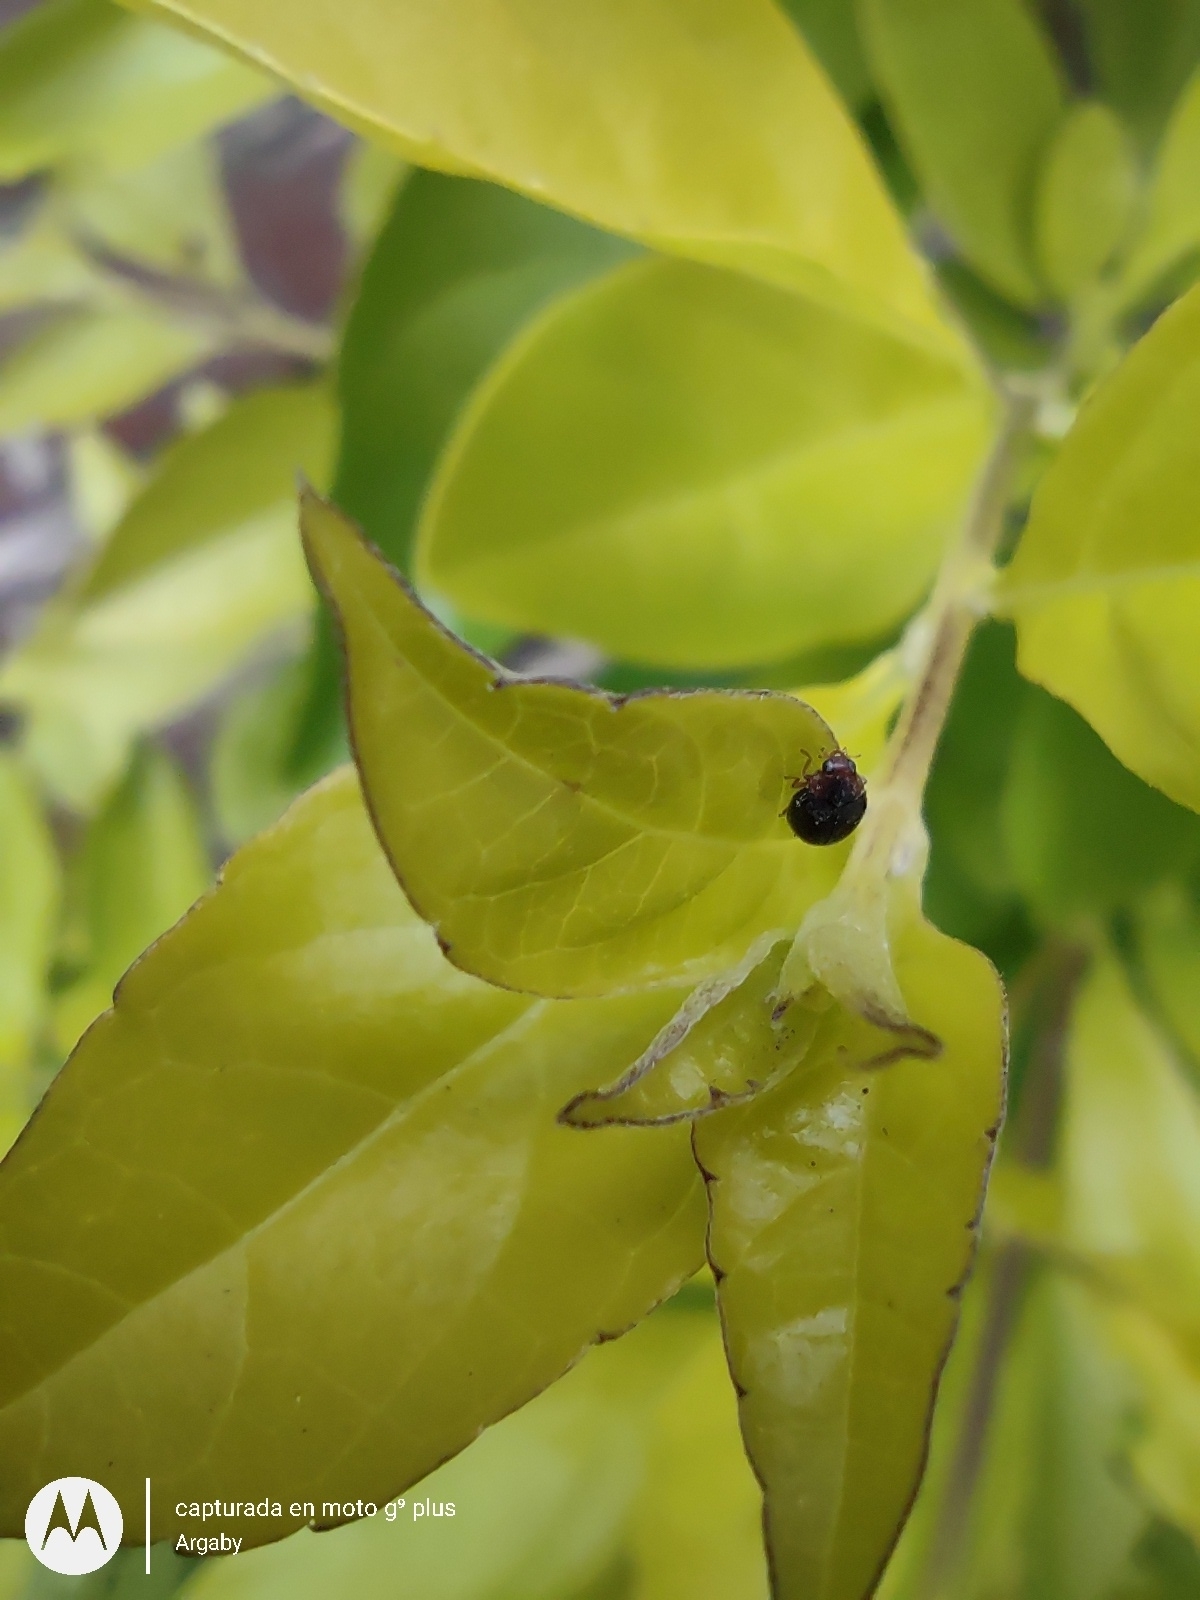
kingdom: Animalia
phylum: Arthropoda
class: Insecta
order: Coleoptera
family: Coccinellidae
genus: Scymnus
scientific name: Scymnus
